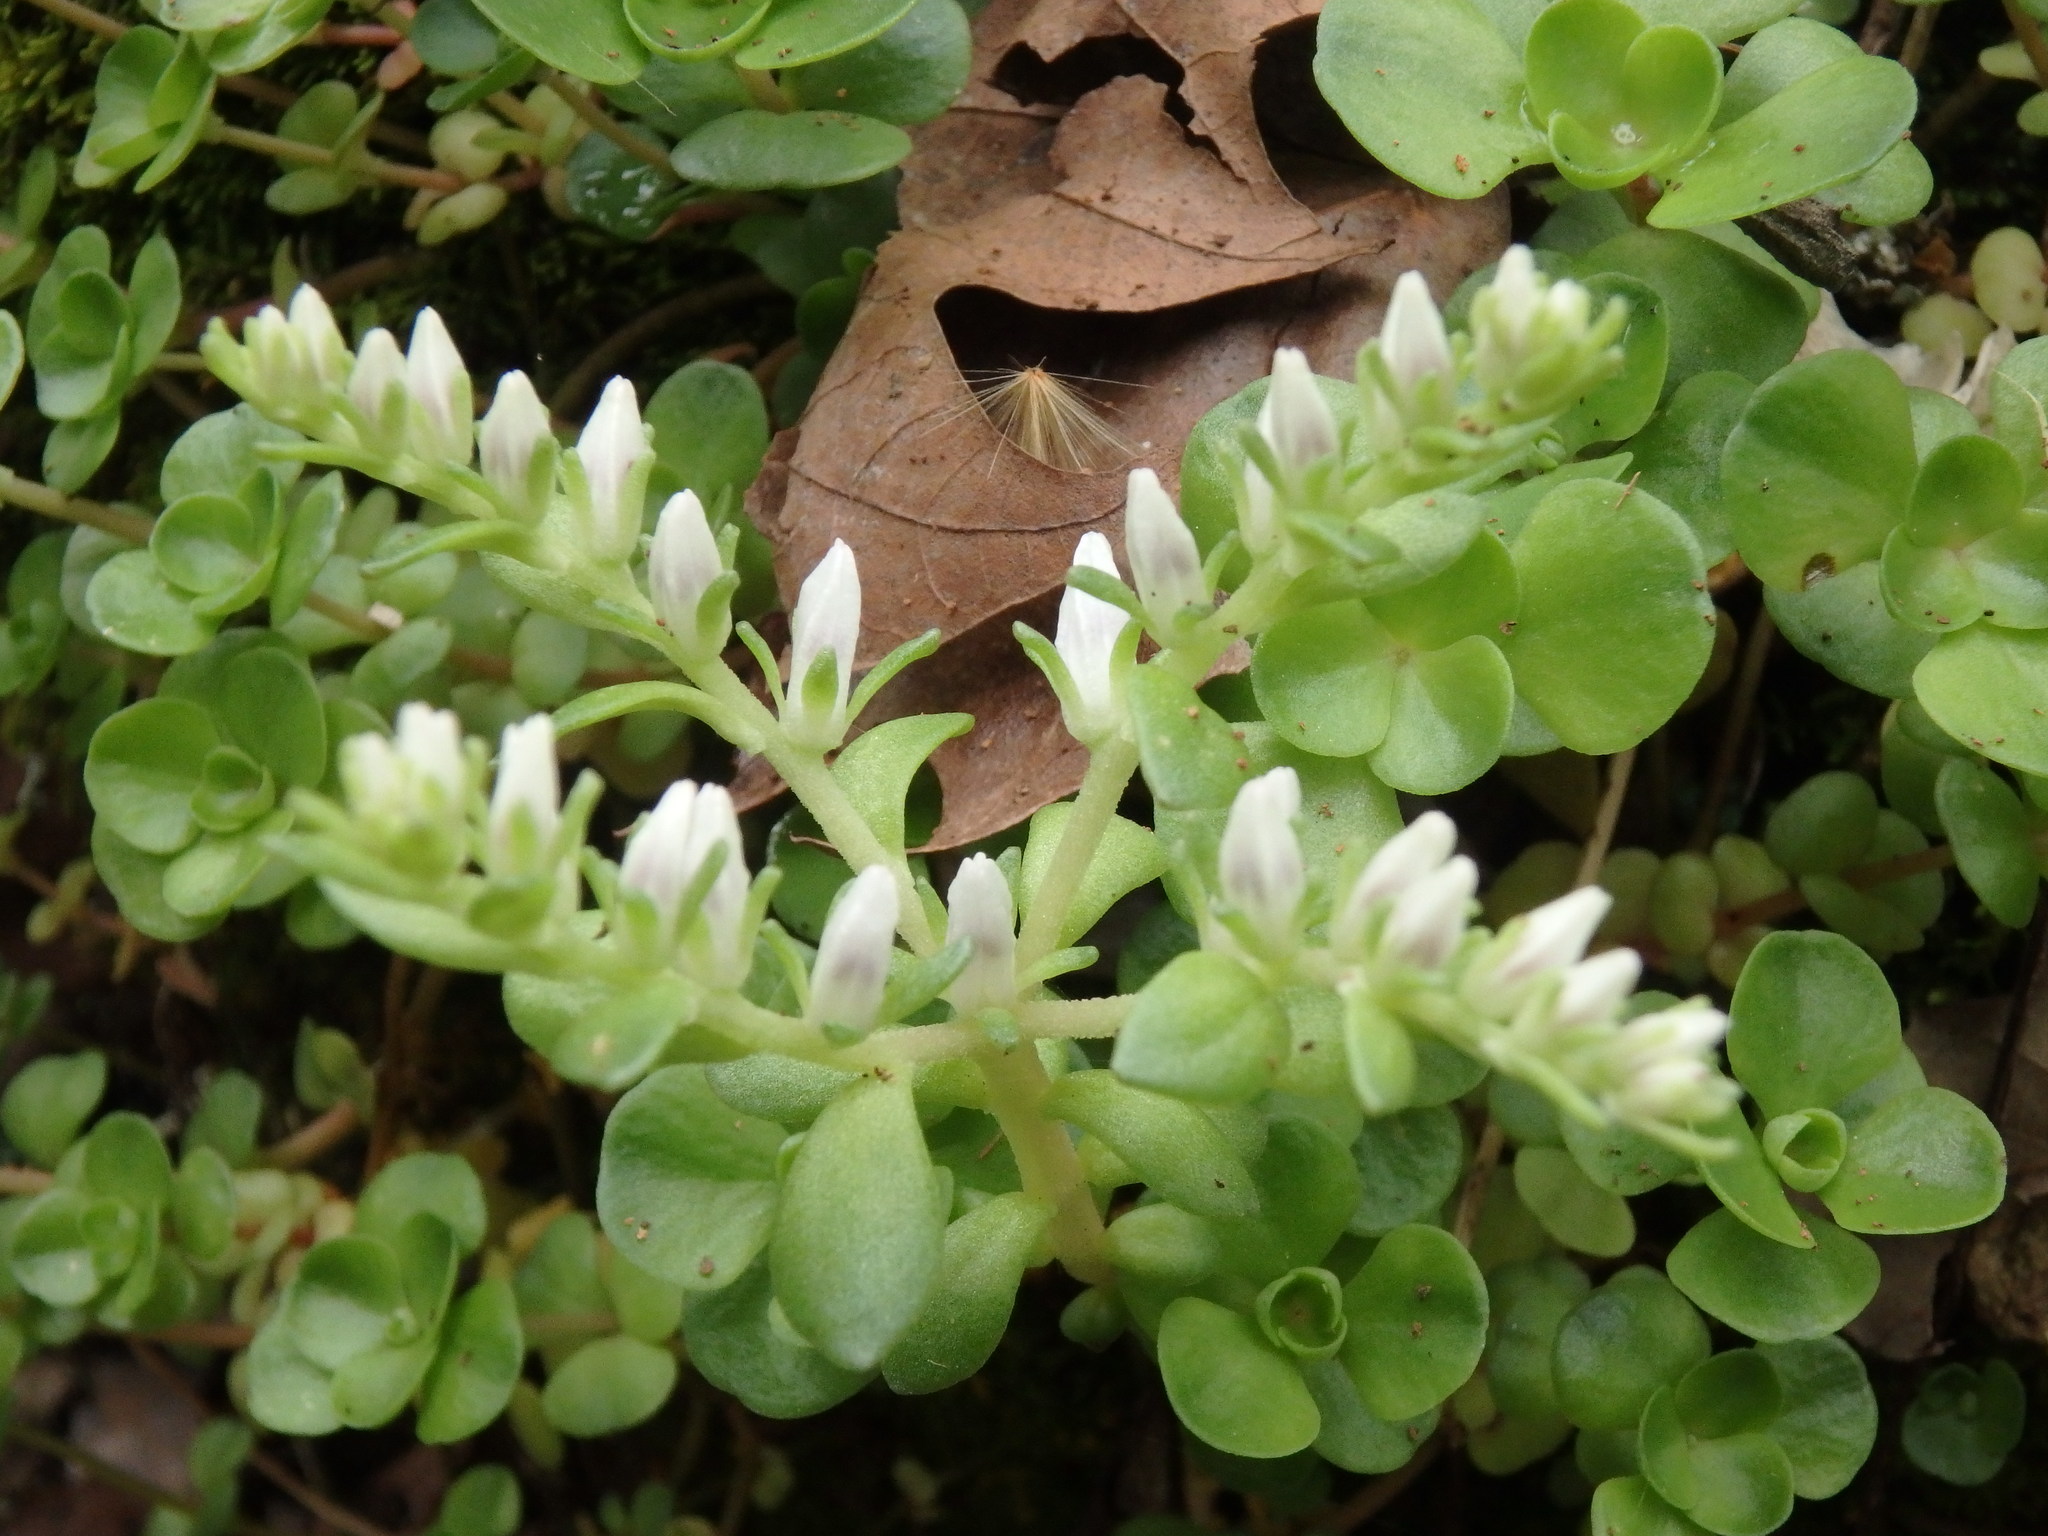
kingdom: Plantae
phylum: Tracheophyta
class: Magnoliopsida
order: Saxifragales
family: Crassulaceae
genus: Sedum
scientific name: Sedum ternatum
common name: Wild stonecrop
